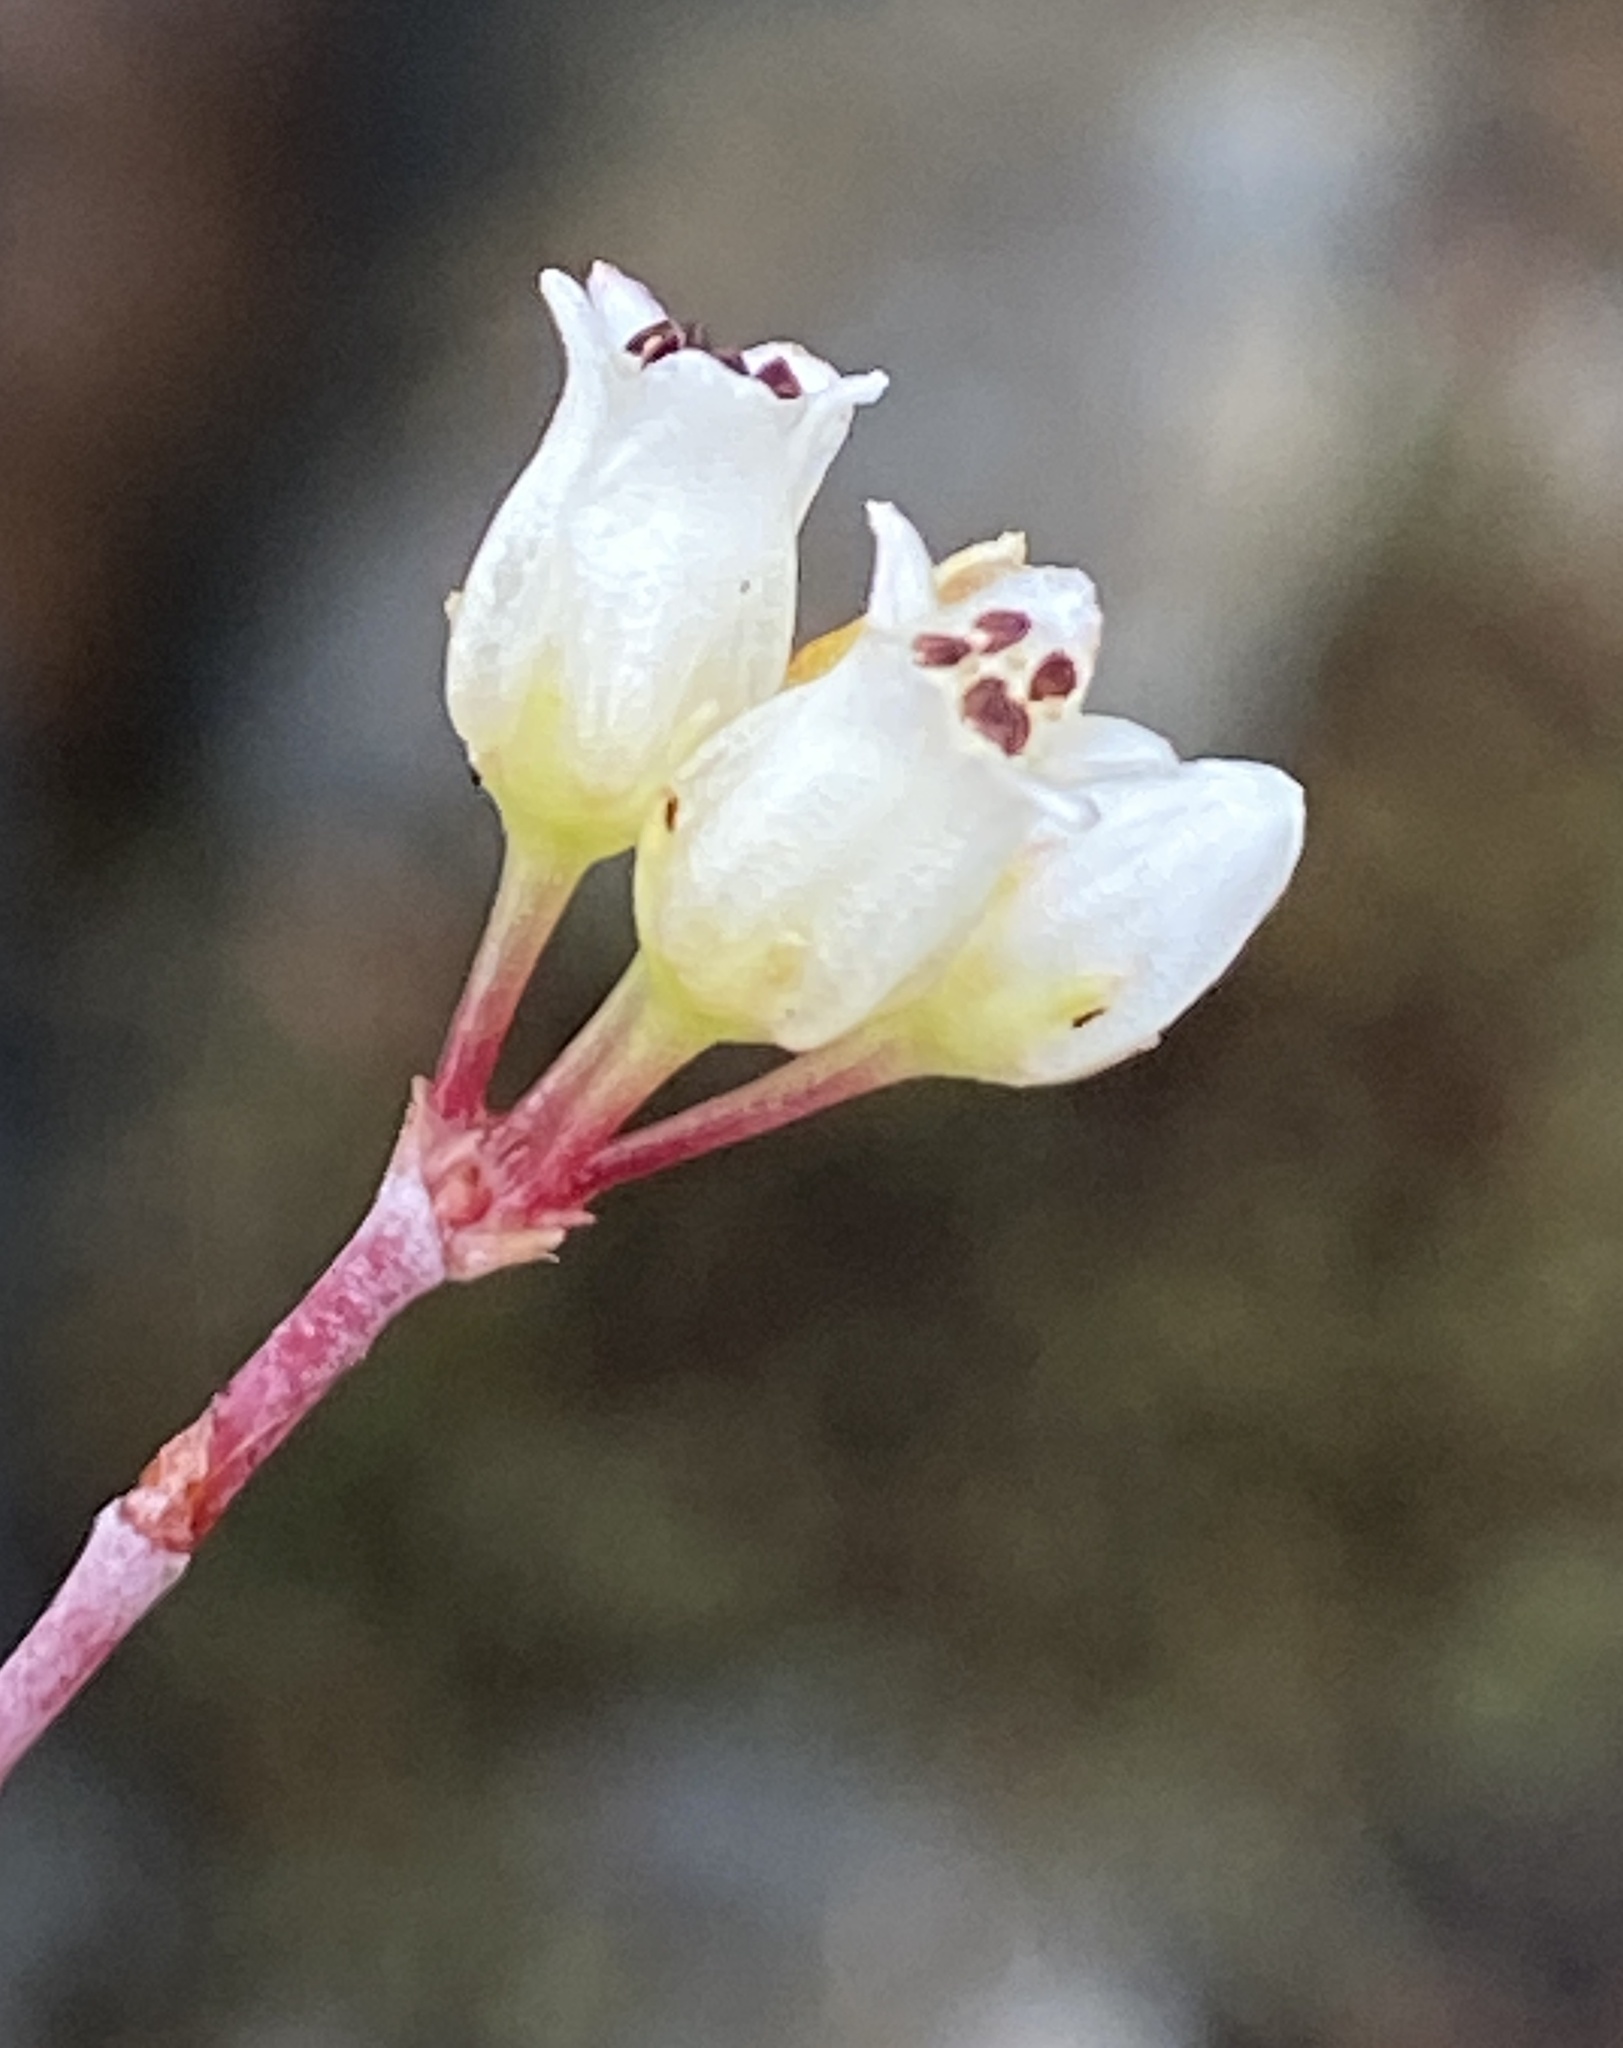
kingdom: Plantae
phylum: Tracheophyta
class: Magnoliopsida
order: Saxifragales
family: Crassulaceae
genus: Crassula
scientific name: Crassula biplanata
